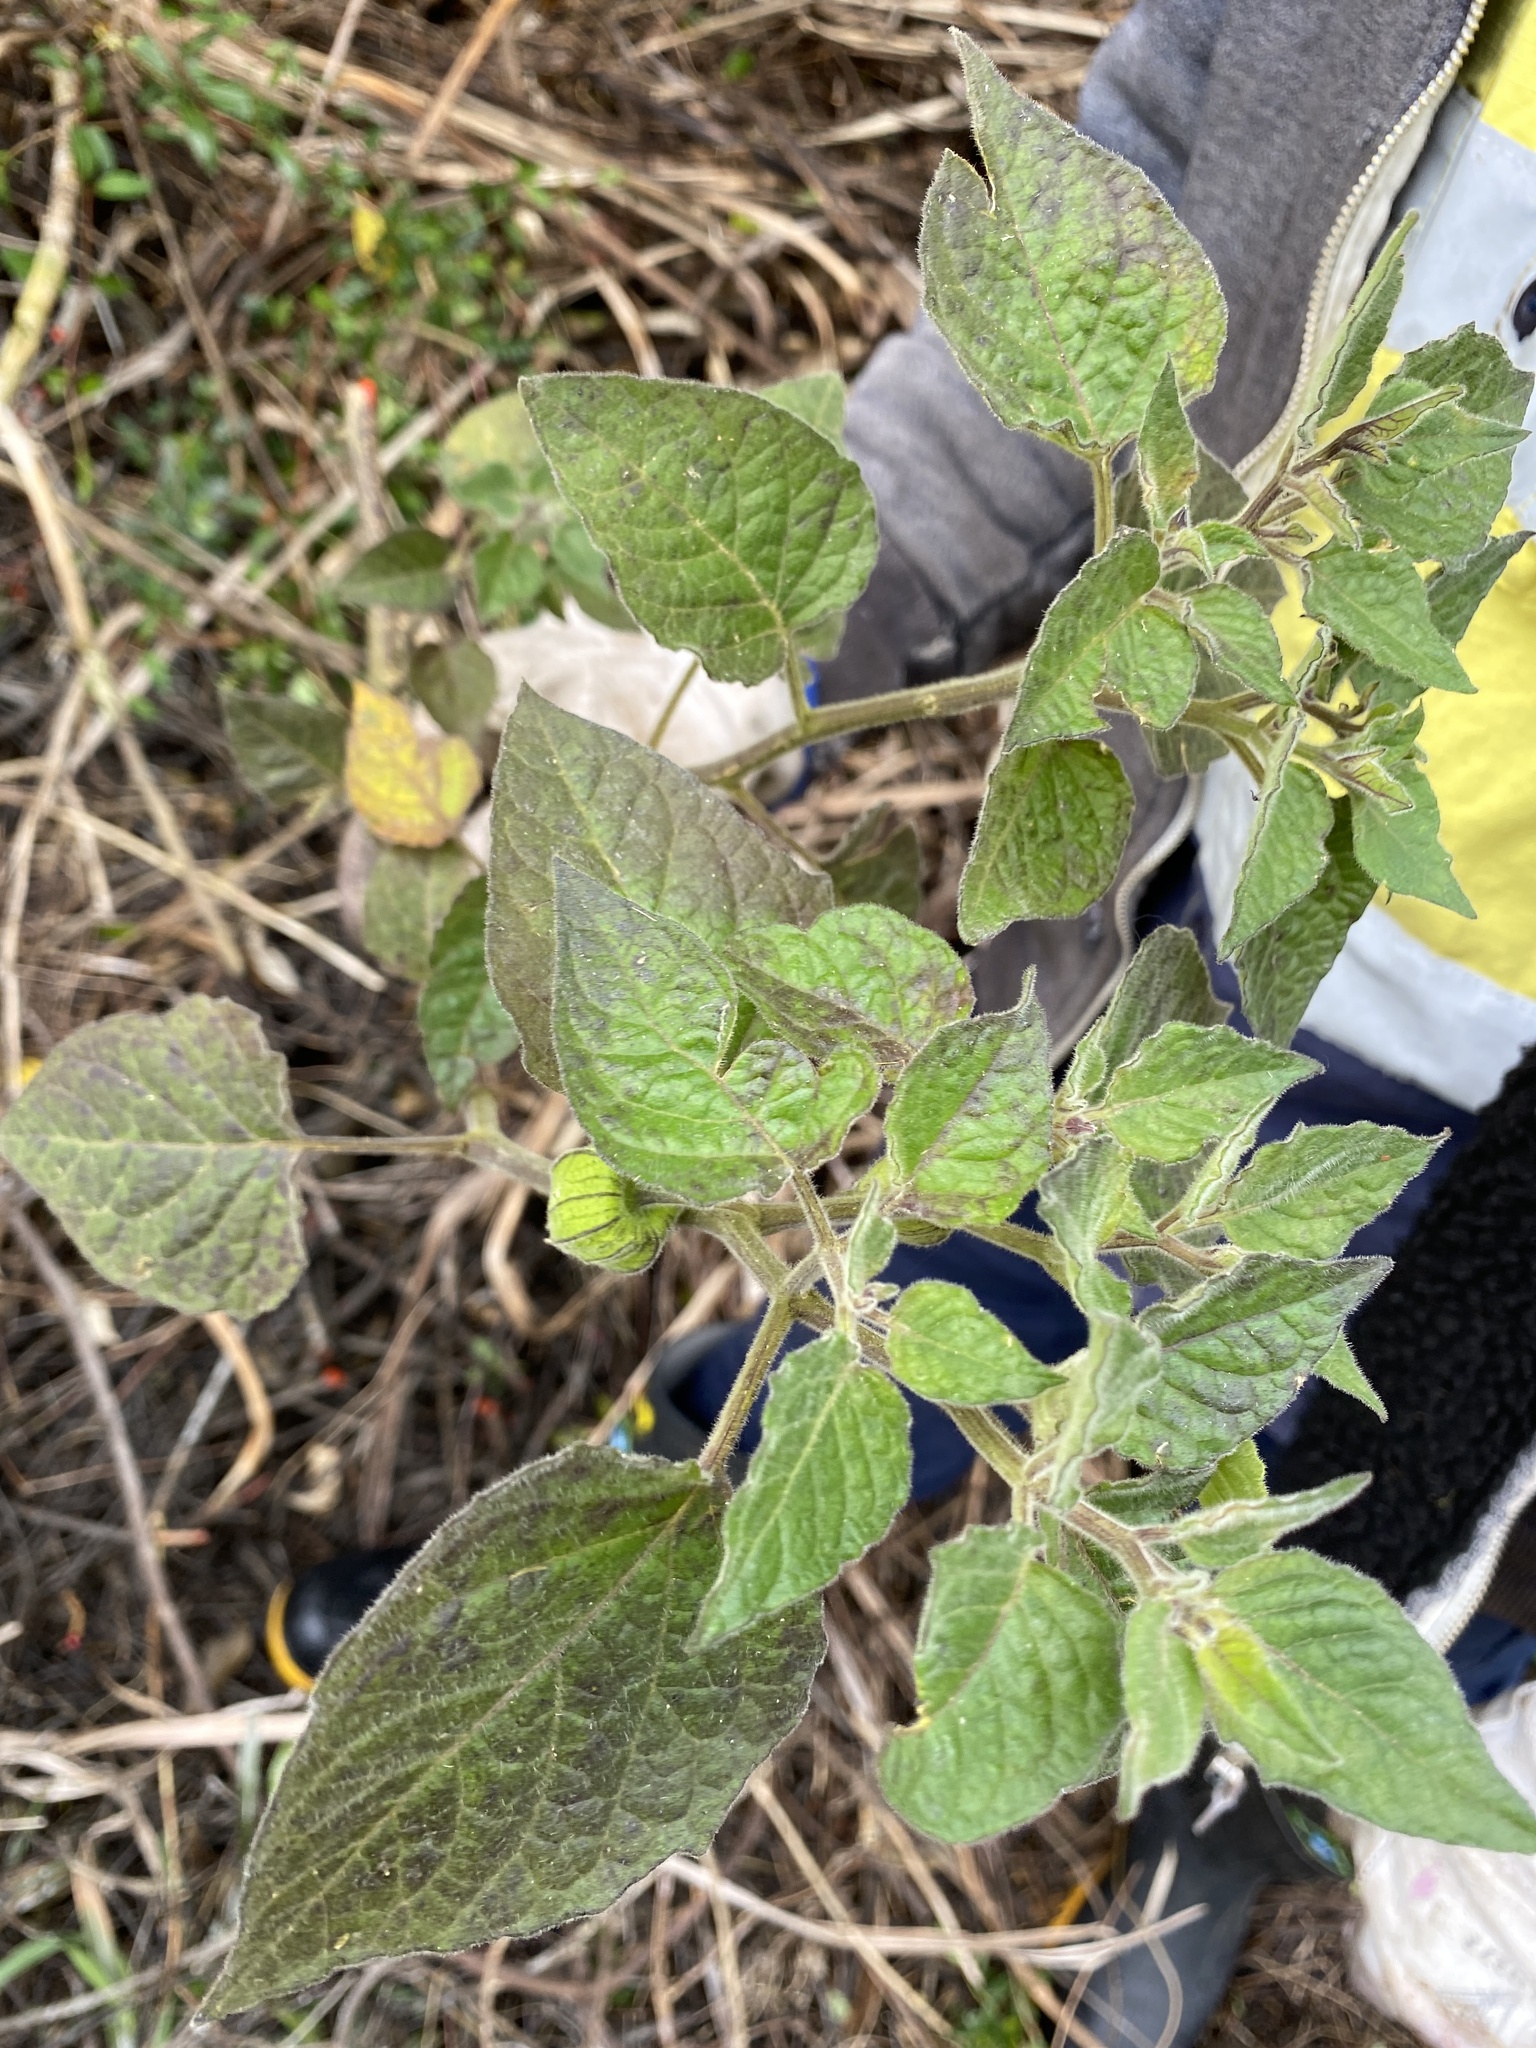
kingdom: Plantae
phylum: Tracheophyta
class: Magnoliopsida
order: Solanales
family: Solanaceae
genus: Physalis
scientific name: Physalis peruviana
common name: Cape-gooseberry
